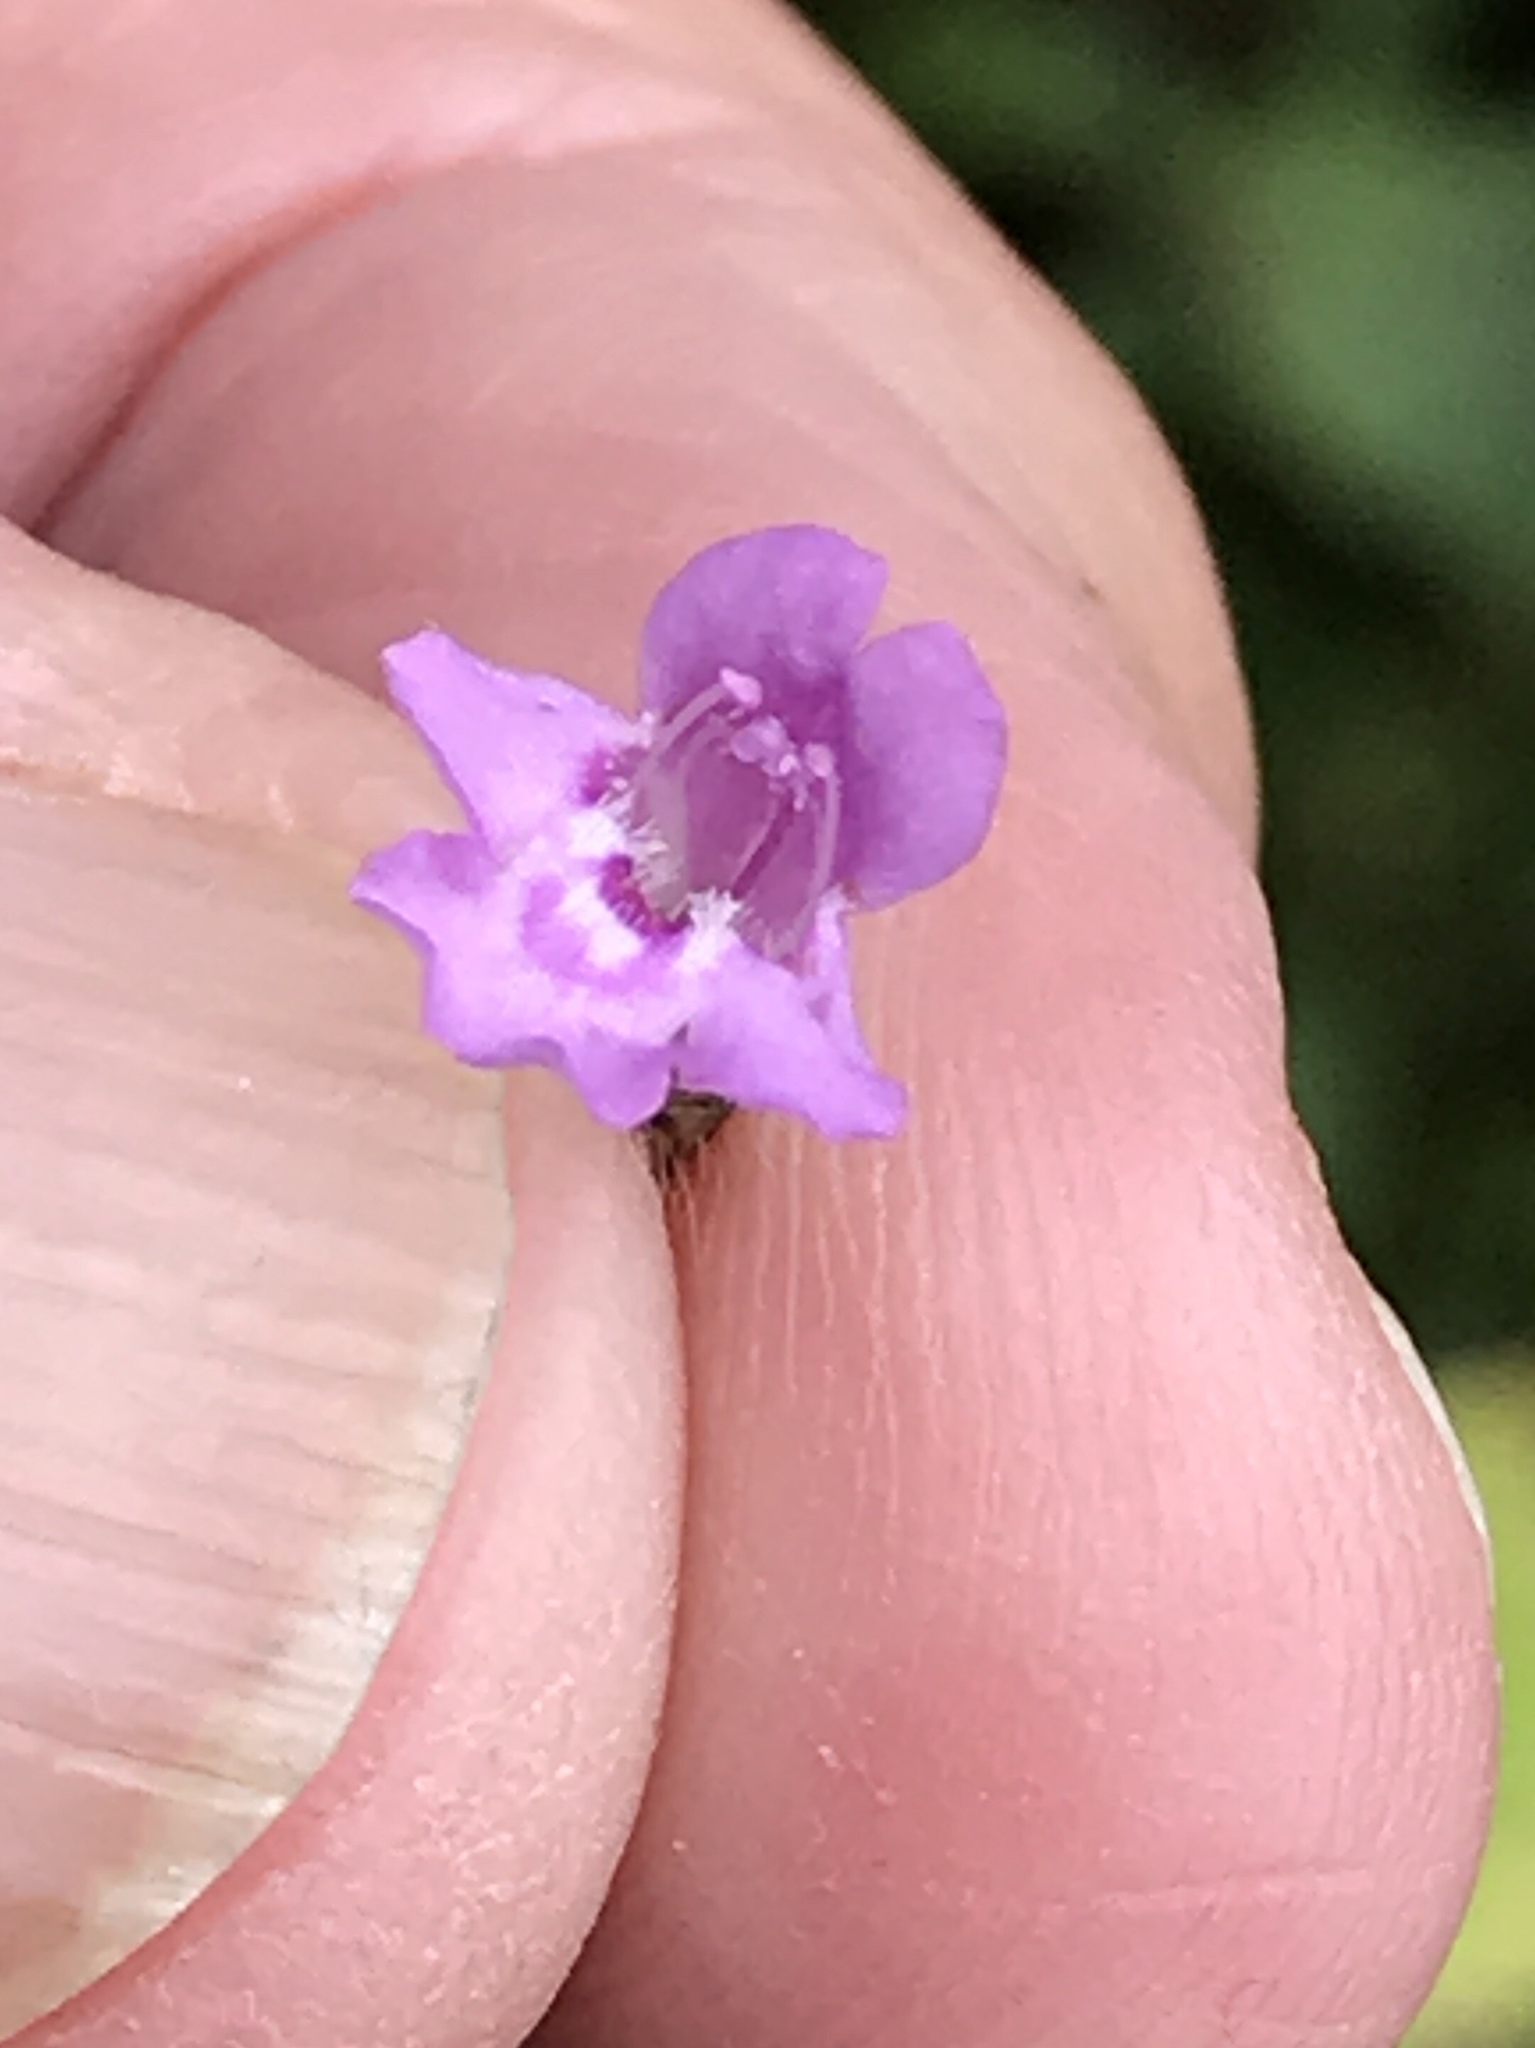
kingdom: Plantae
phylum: Tracheophyta
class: Magnoliopsida
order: Lamiales
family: Lamiaceae
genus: Clinopodium
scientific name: Clinopodium vulgare
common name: Wild basil
